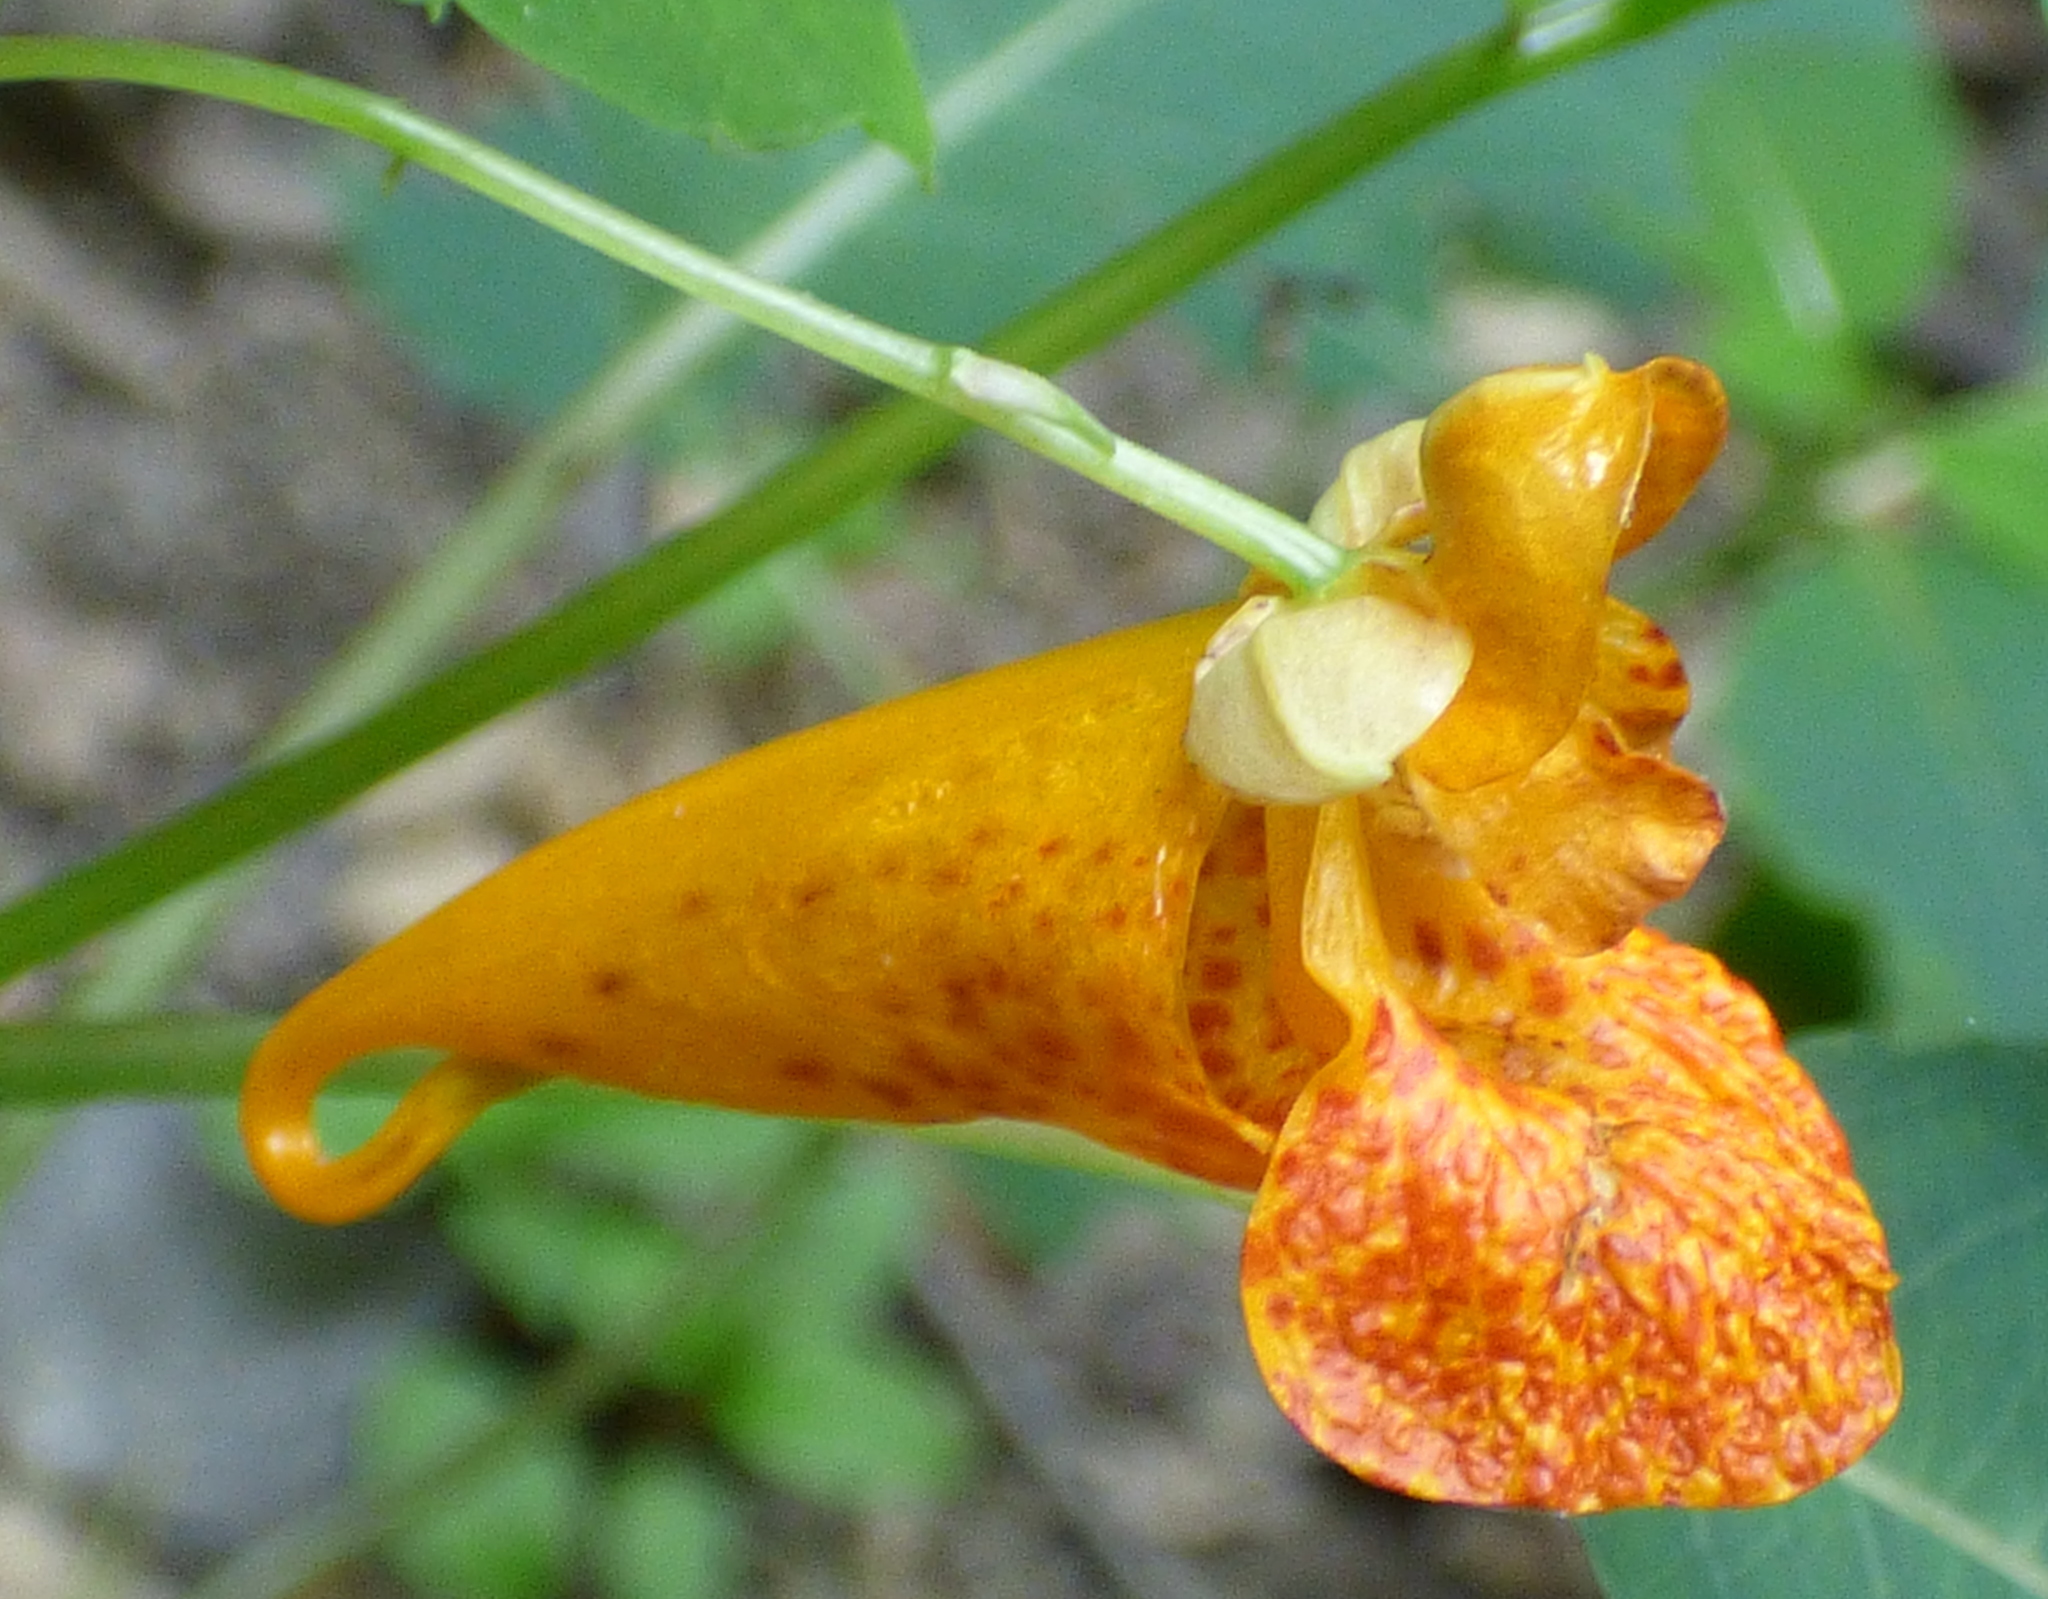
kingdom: Plantae
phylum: Tracheophyta
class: Magnoliopsida
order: Ericales
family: Balsaminaceae
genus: Impatiens
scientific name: Impatiens capensis
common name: Orange balsam
